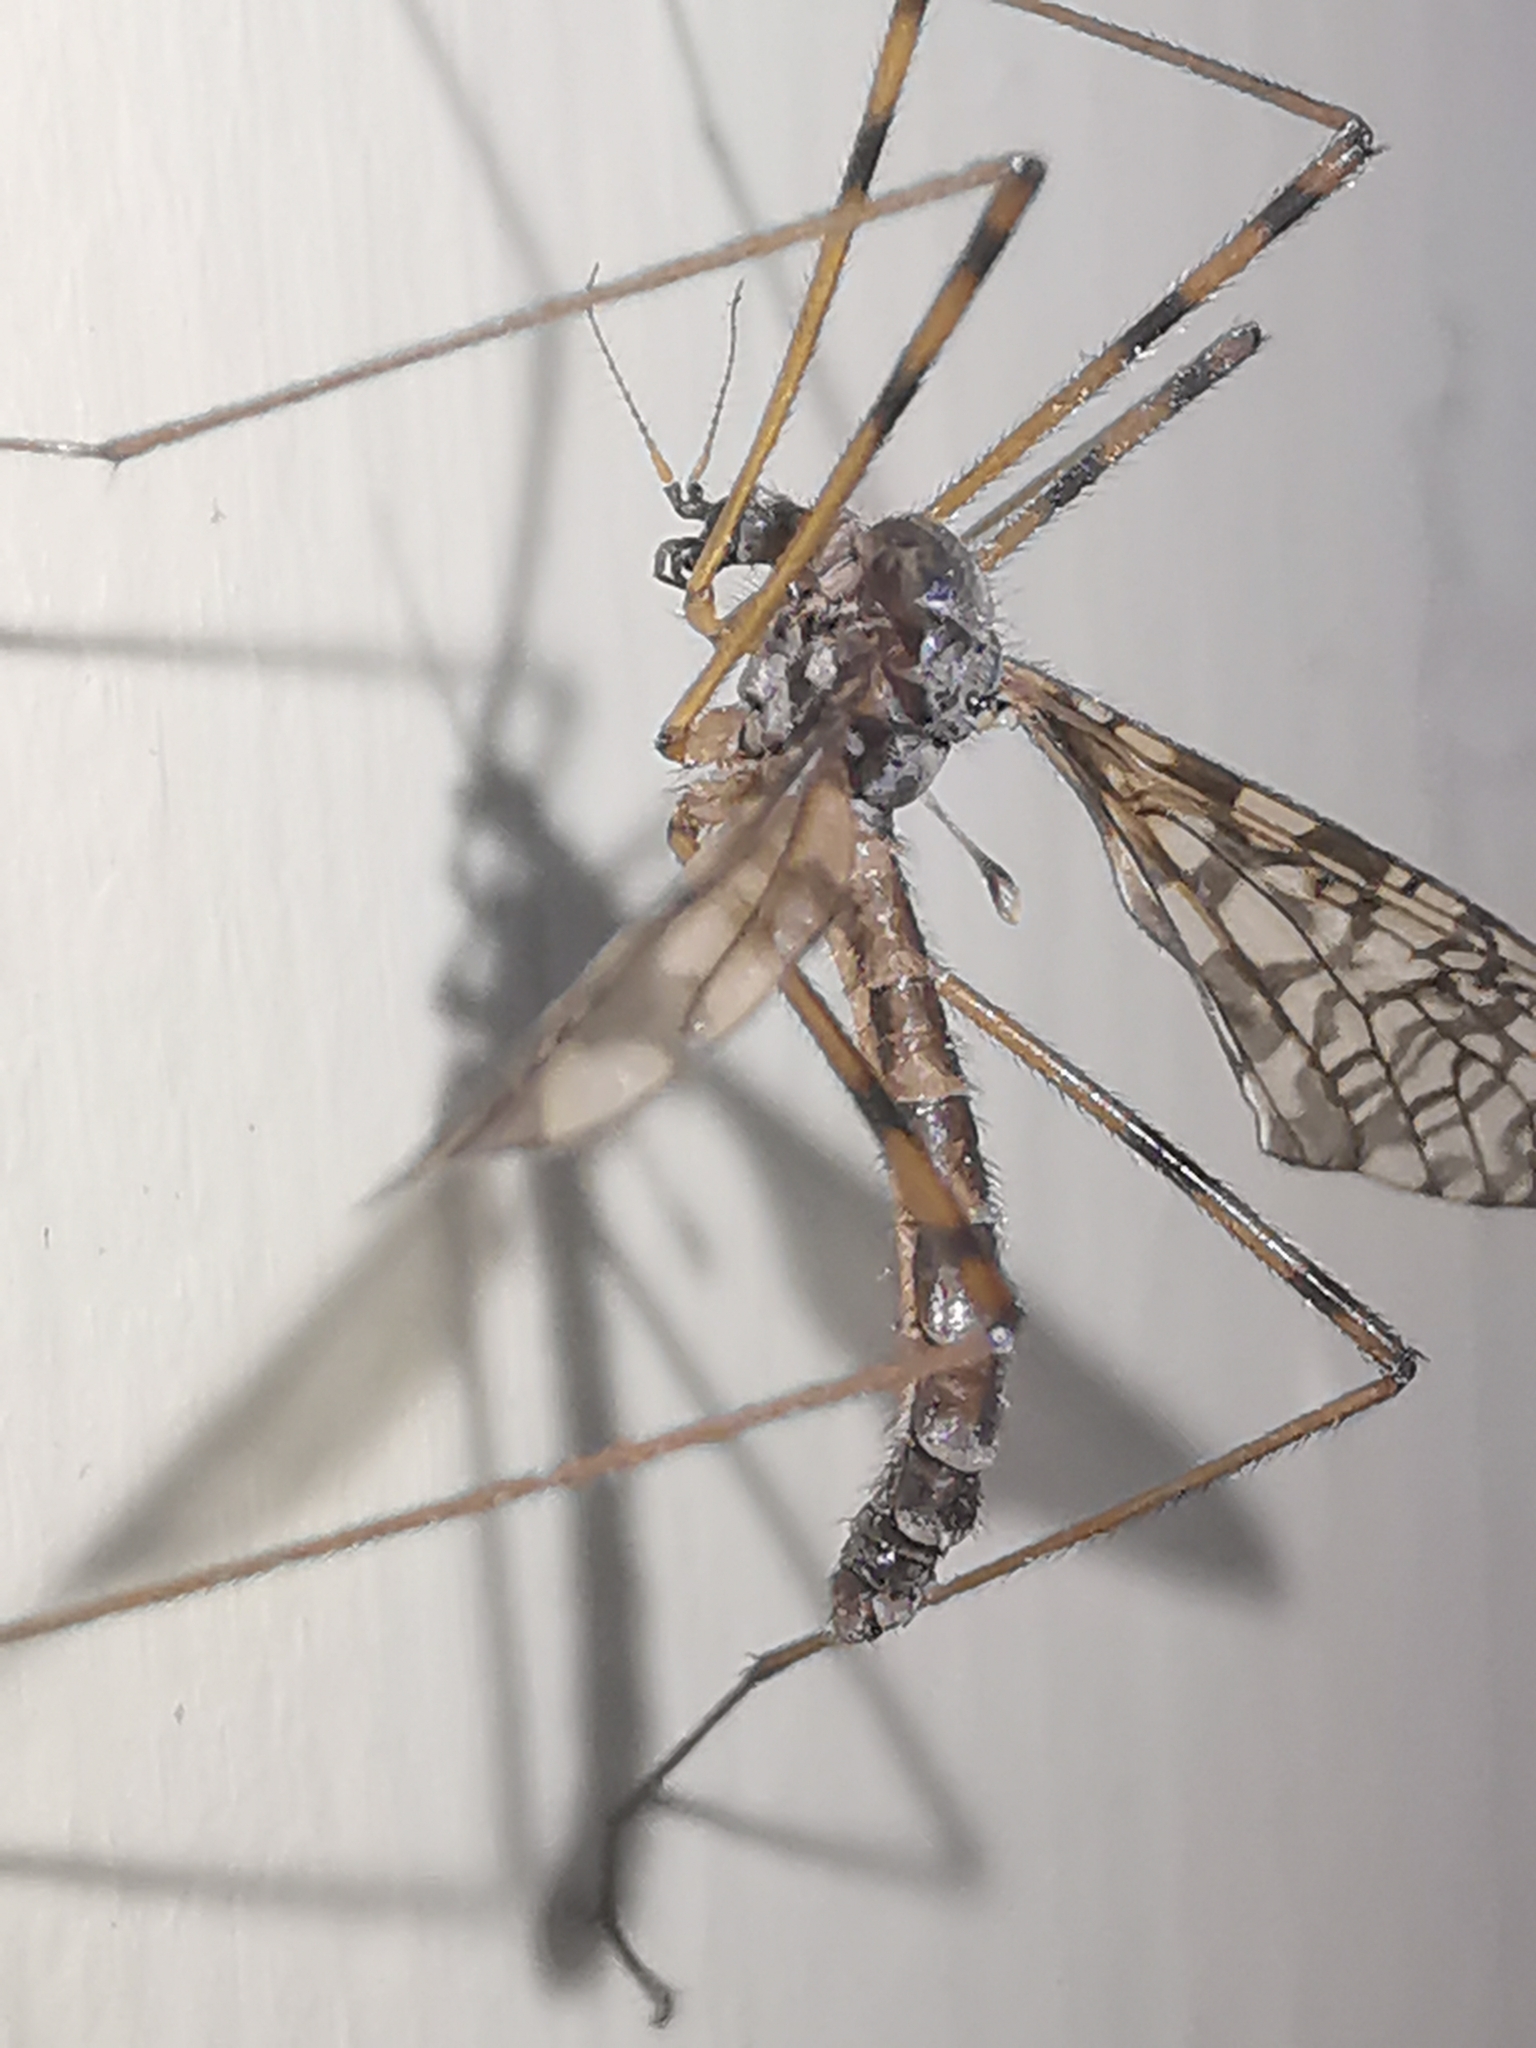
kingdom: Animalia
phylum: Arthropoda
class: Insecta
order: Diptera
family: Limoniidae
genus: Epiphragma
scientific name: Epiphragma ocellare
